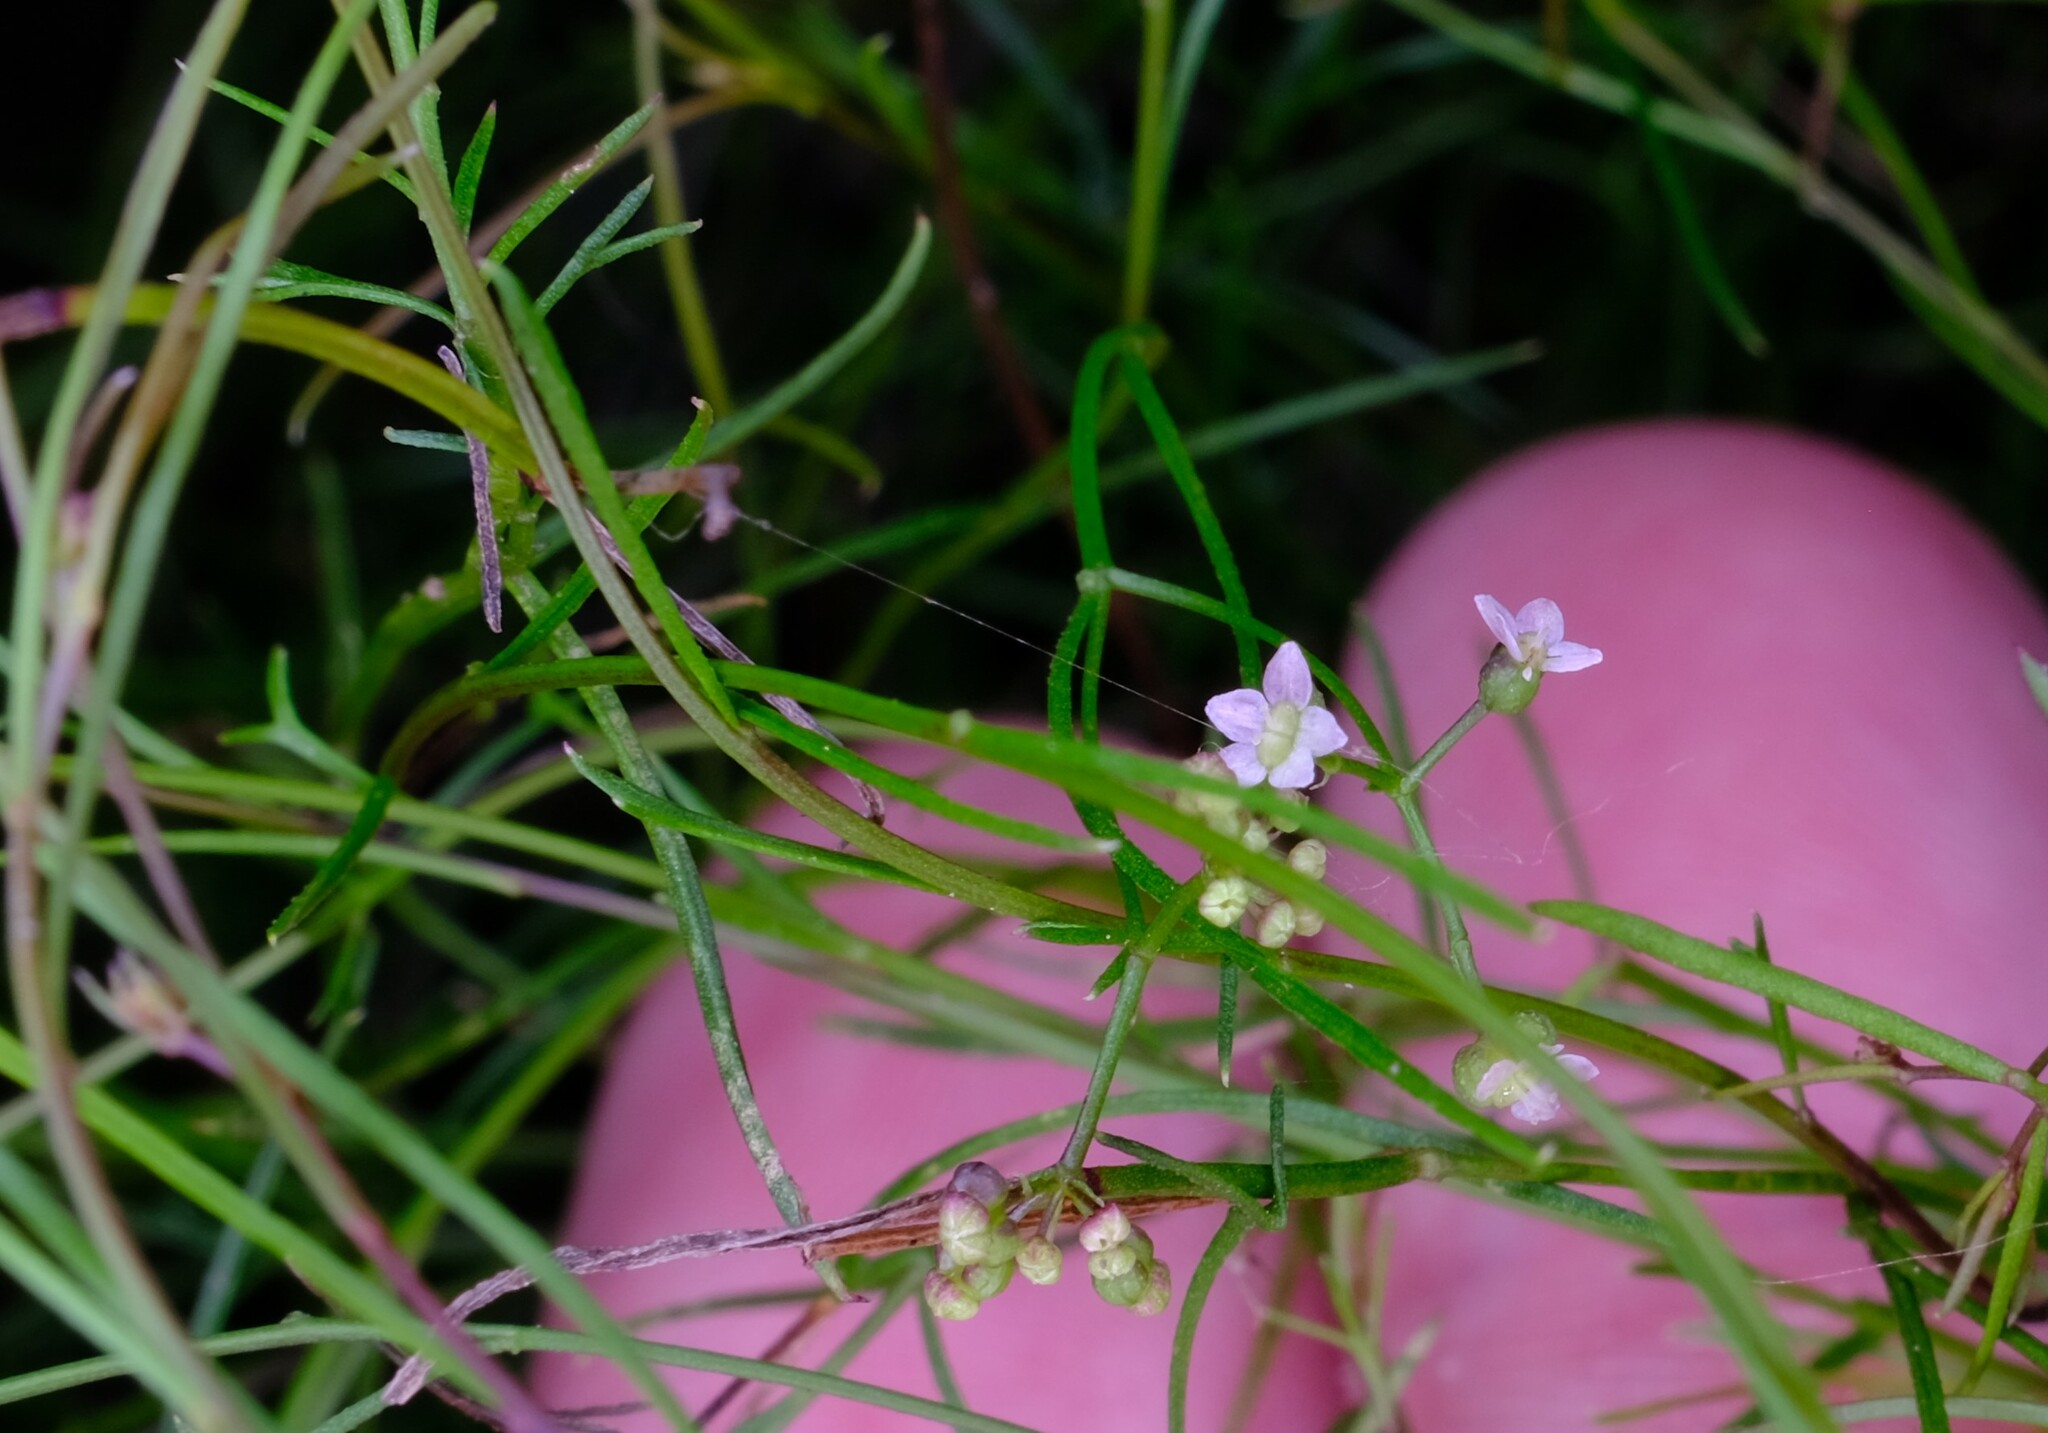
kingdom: Plantae
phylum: Tracheophyta
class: Magnoliopsida
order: Apiales
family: Apiaceae
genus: Platysace
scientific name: Platysace heterophylla
